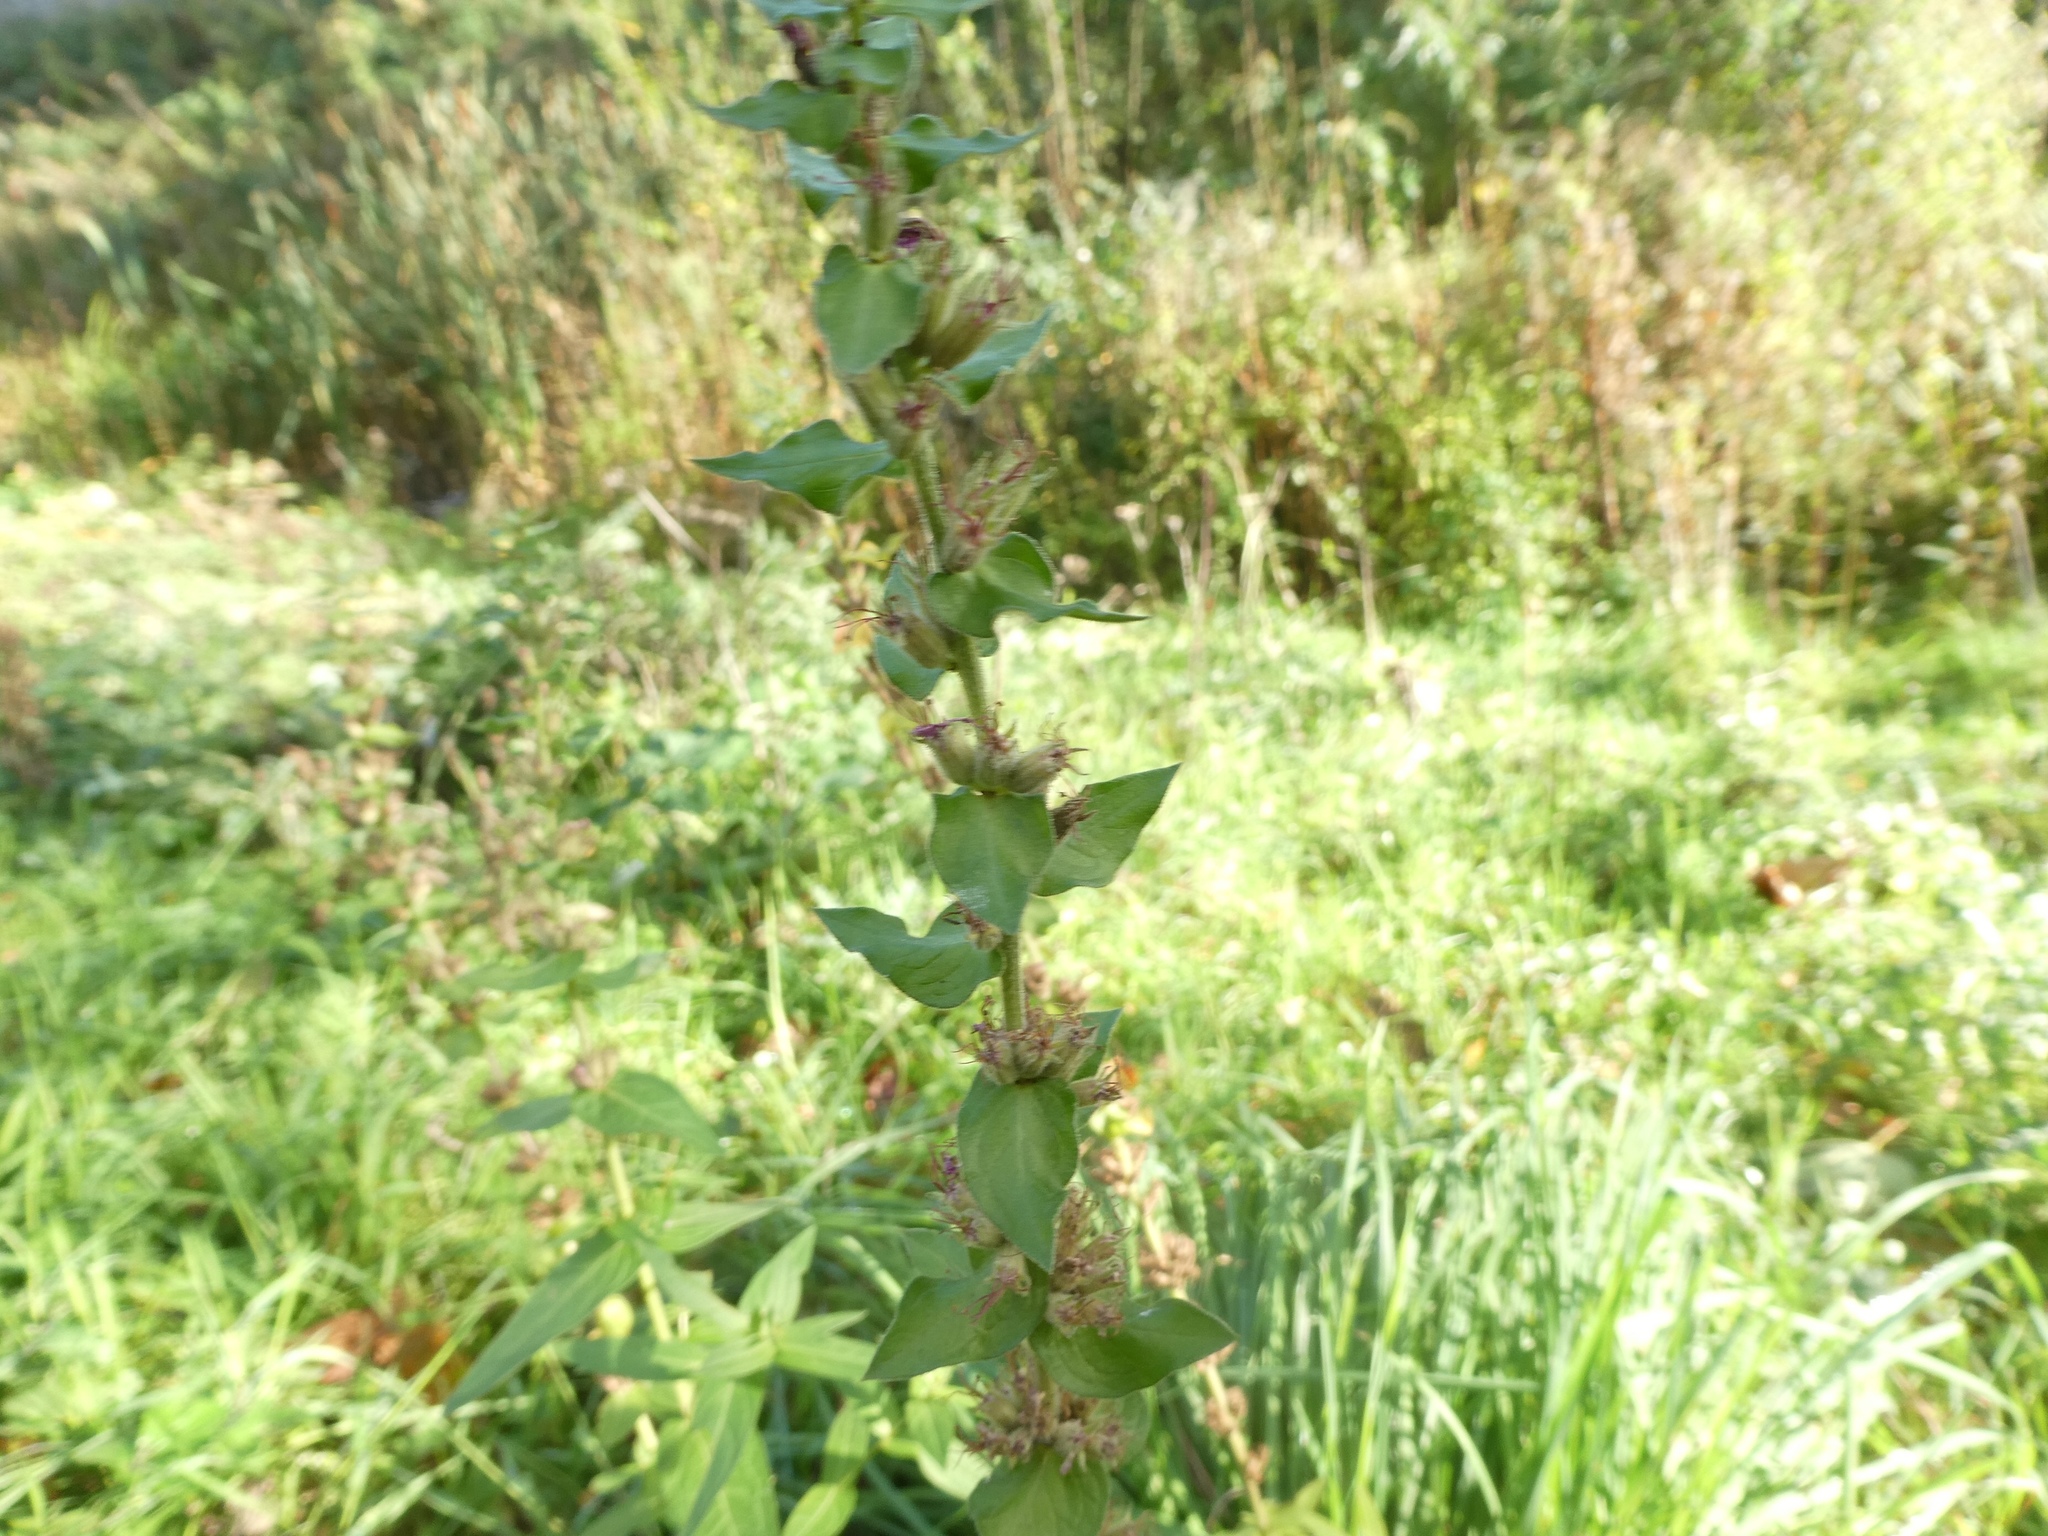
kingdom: Plantae
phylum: Tracheophyta
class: Magnoliopsida
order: Myrtales
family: Lythraceae
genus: Lythrum
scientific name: Lythrum salicaria
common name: Purple loosestrife
